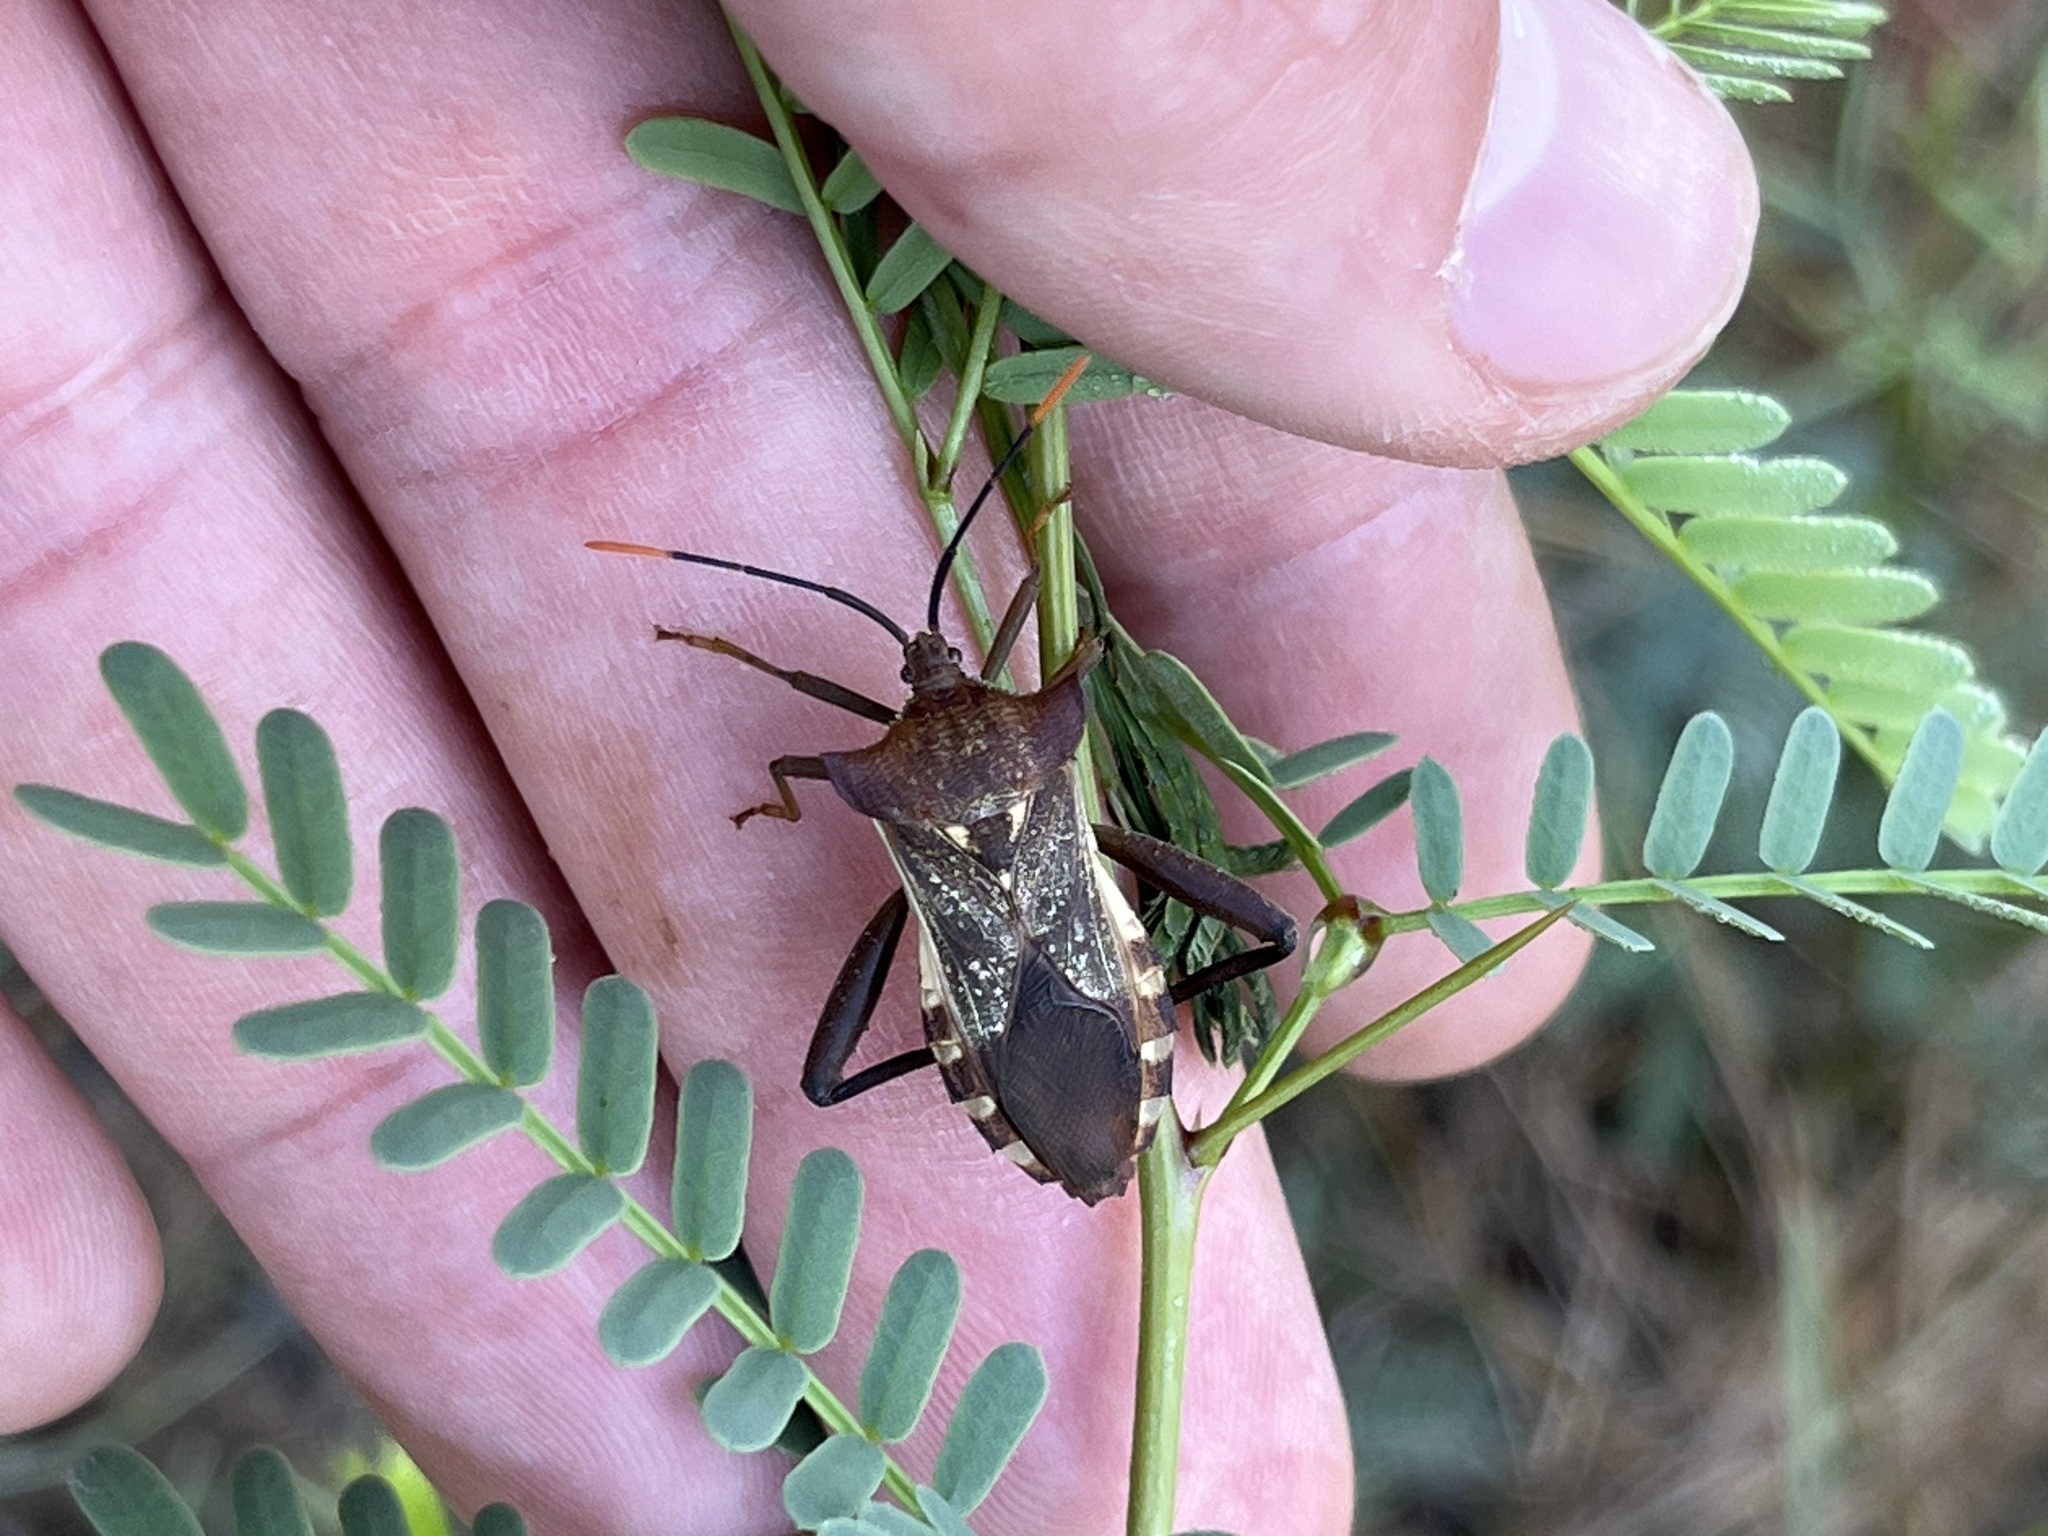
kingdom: Animalia
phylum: Arthropoda
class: Insecta
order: Hemiptera
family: Coreidae
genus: Mozena
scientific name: Mozena lunata
